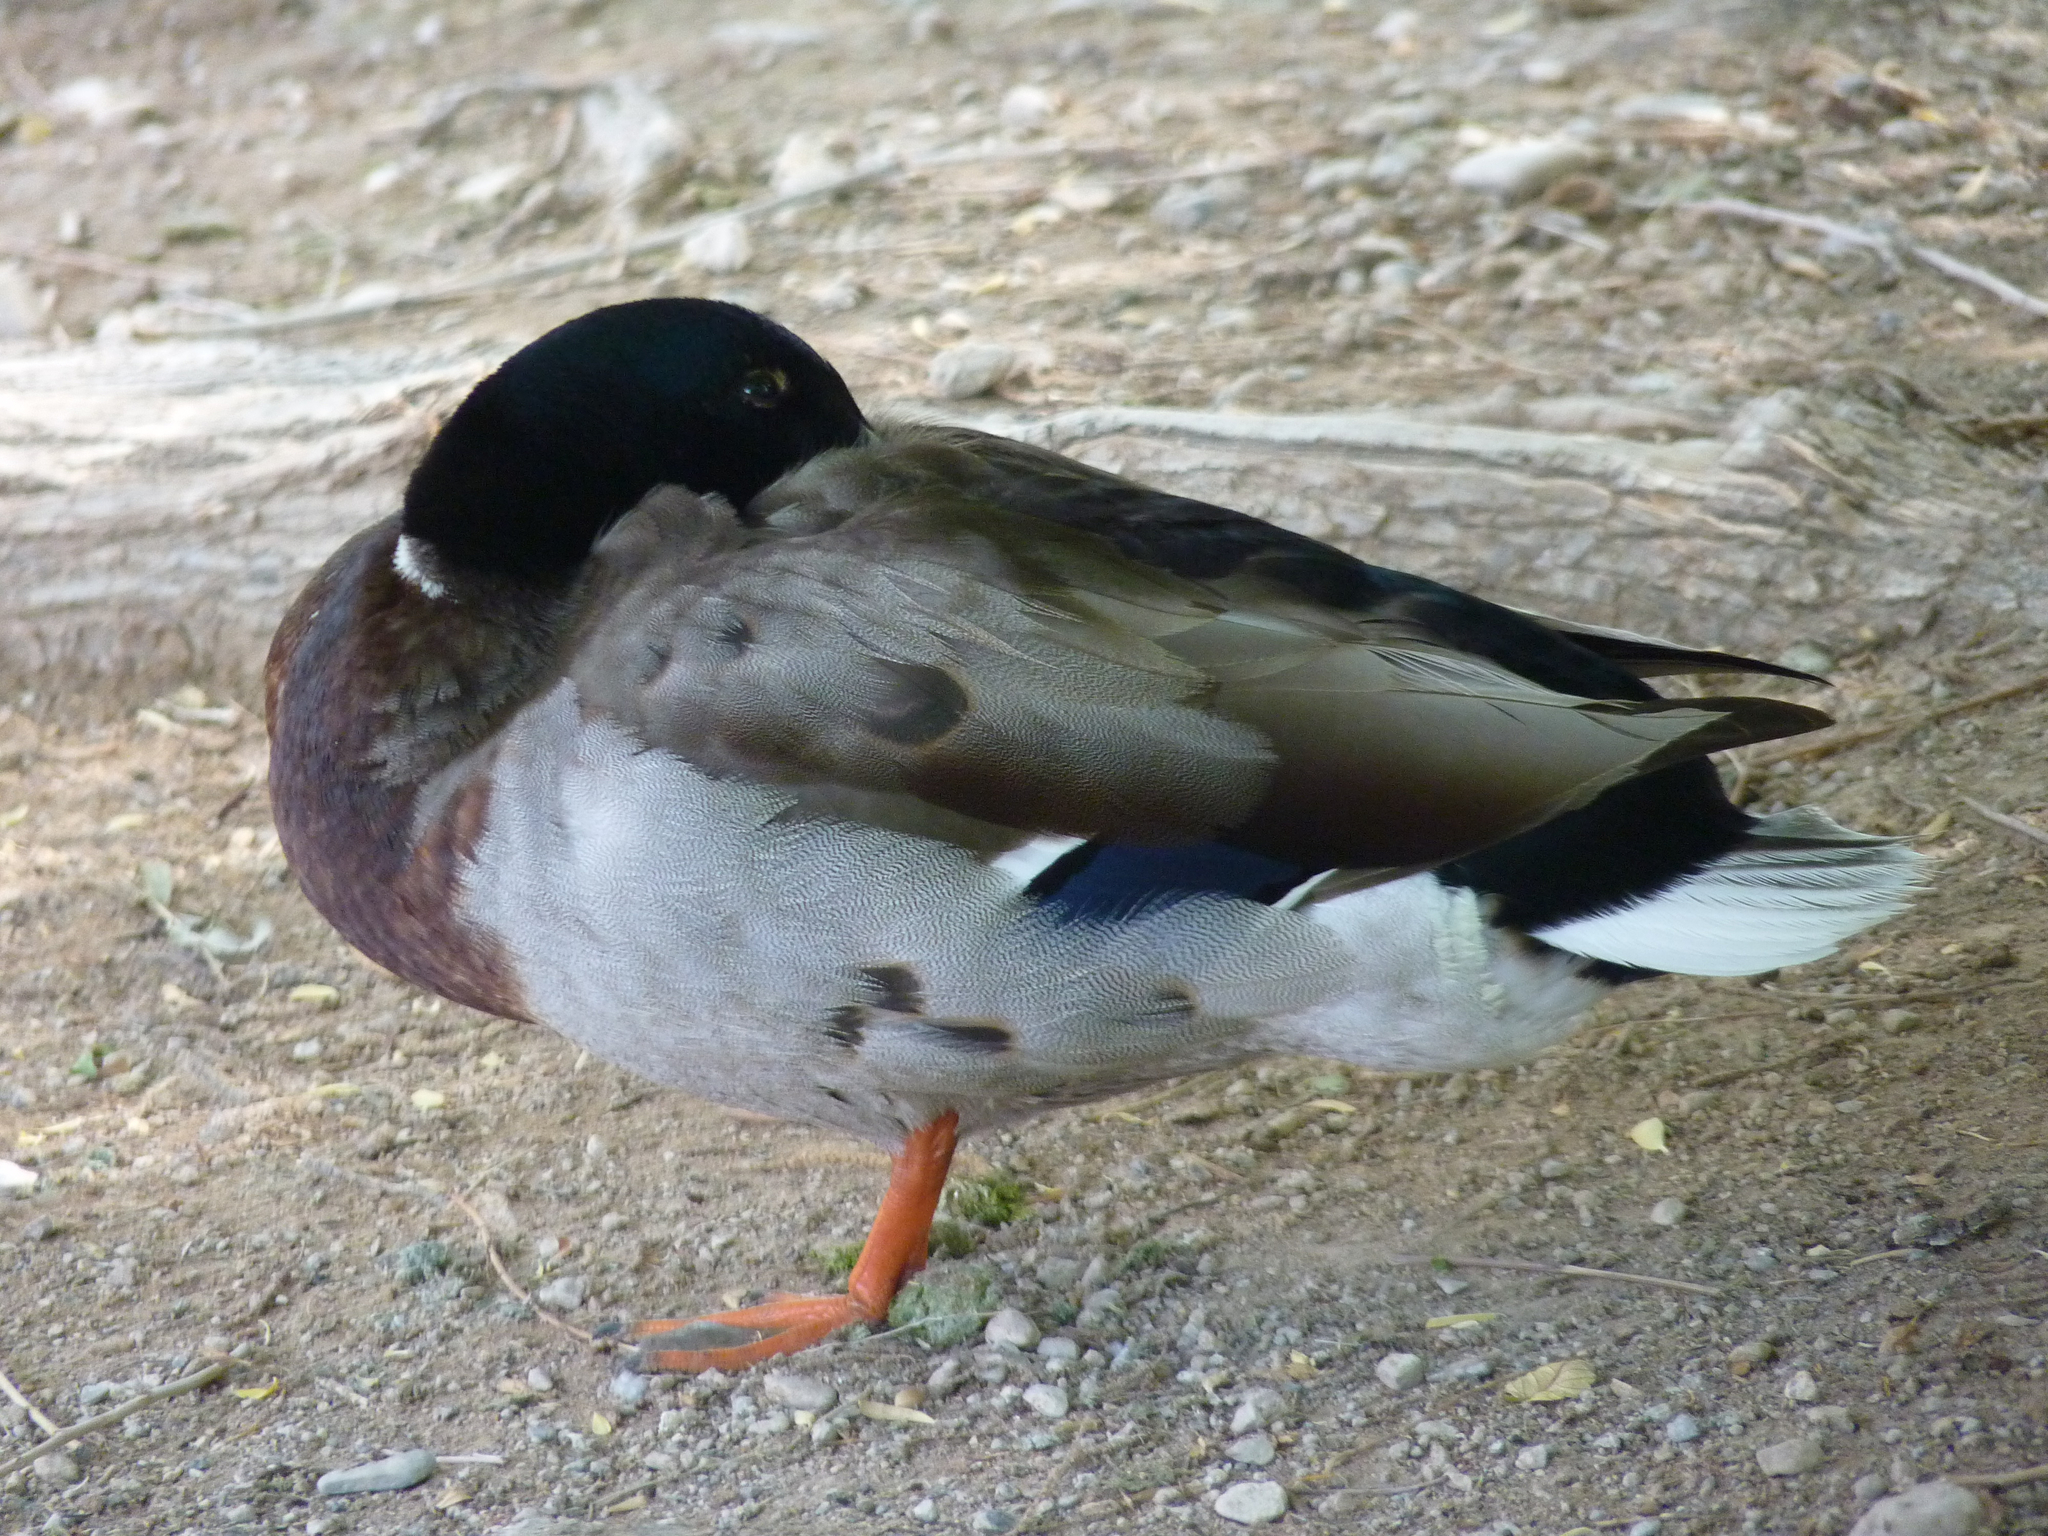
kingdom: Animalia
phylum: Chordata
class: Aves
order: Anseriformes
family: Anatidae
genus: Anas
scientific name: Anas platyrhynchos
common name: Mallard
